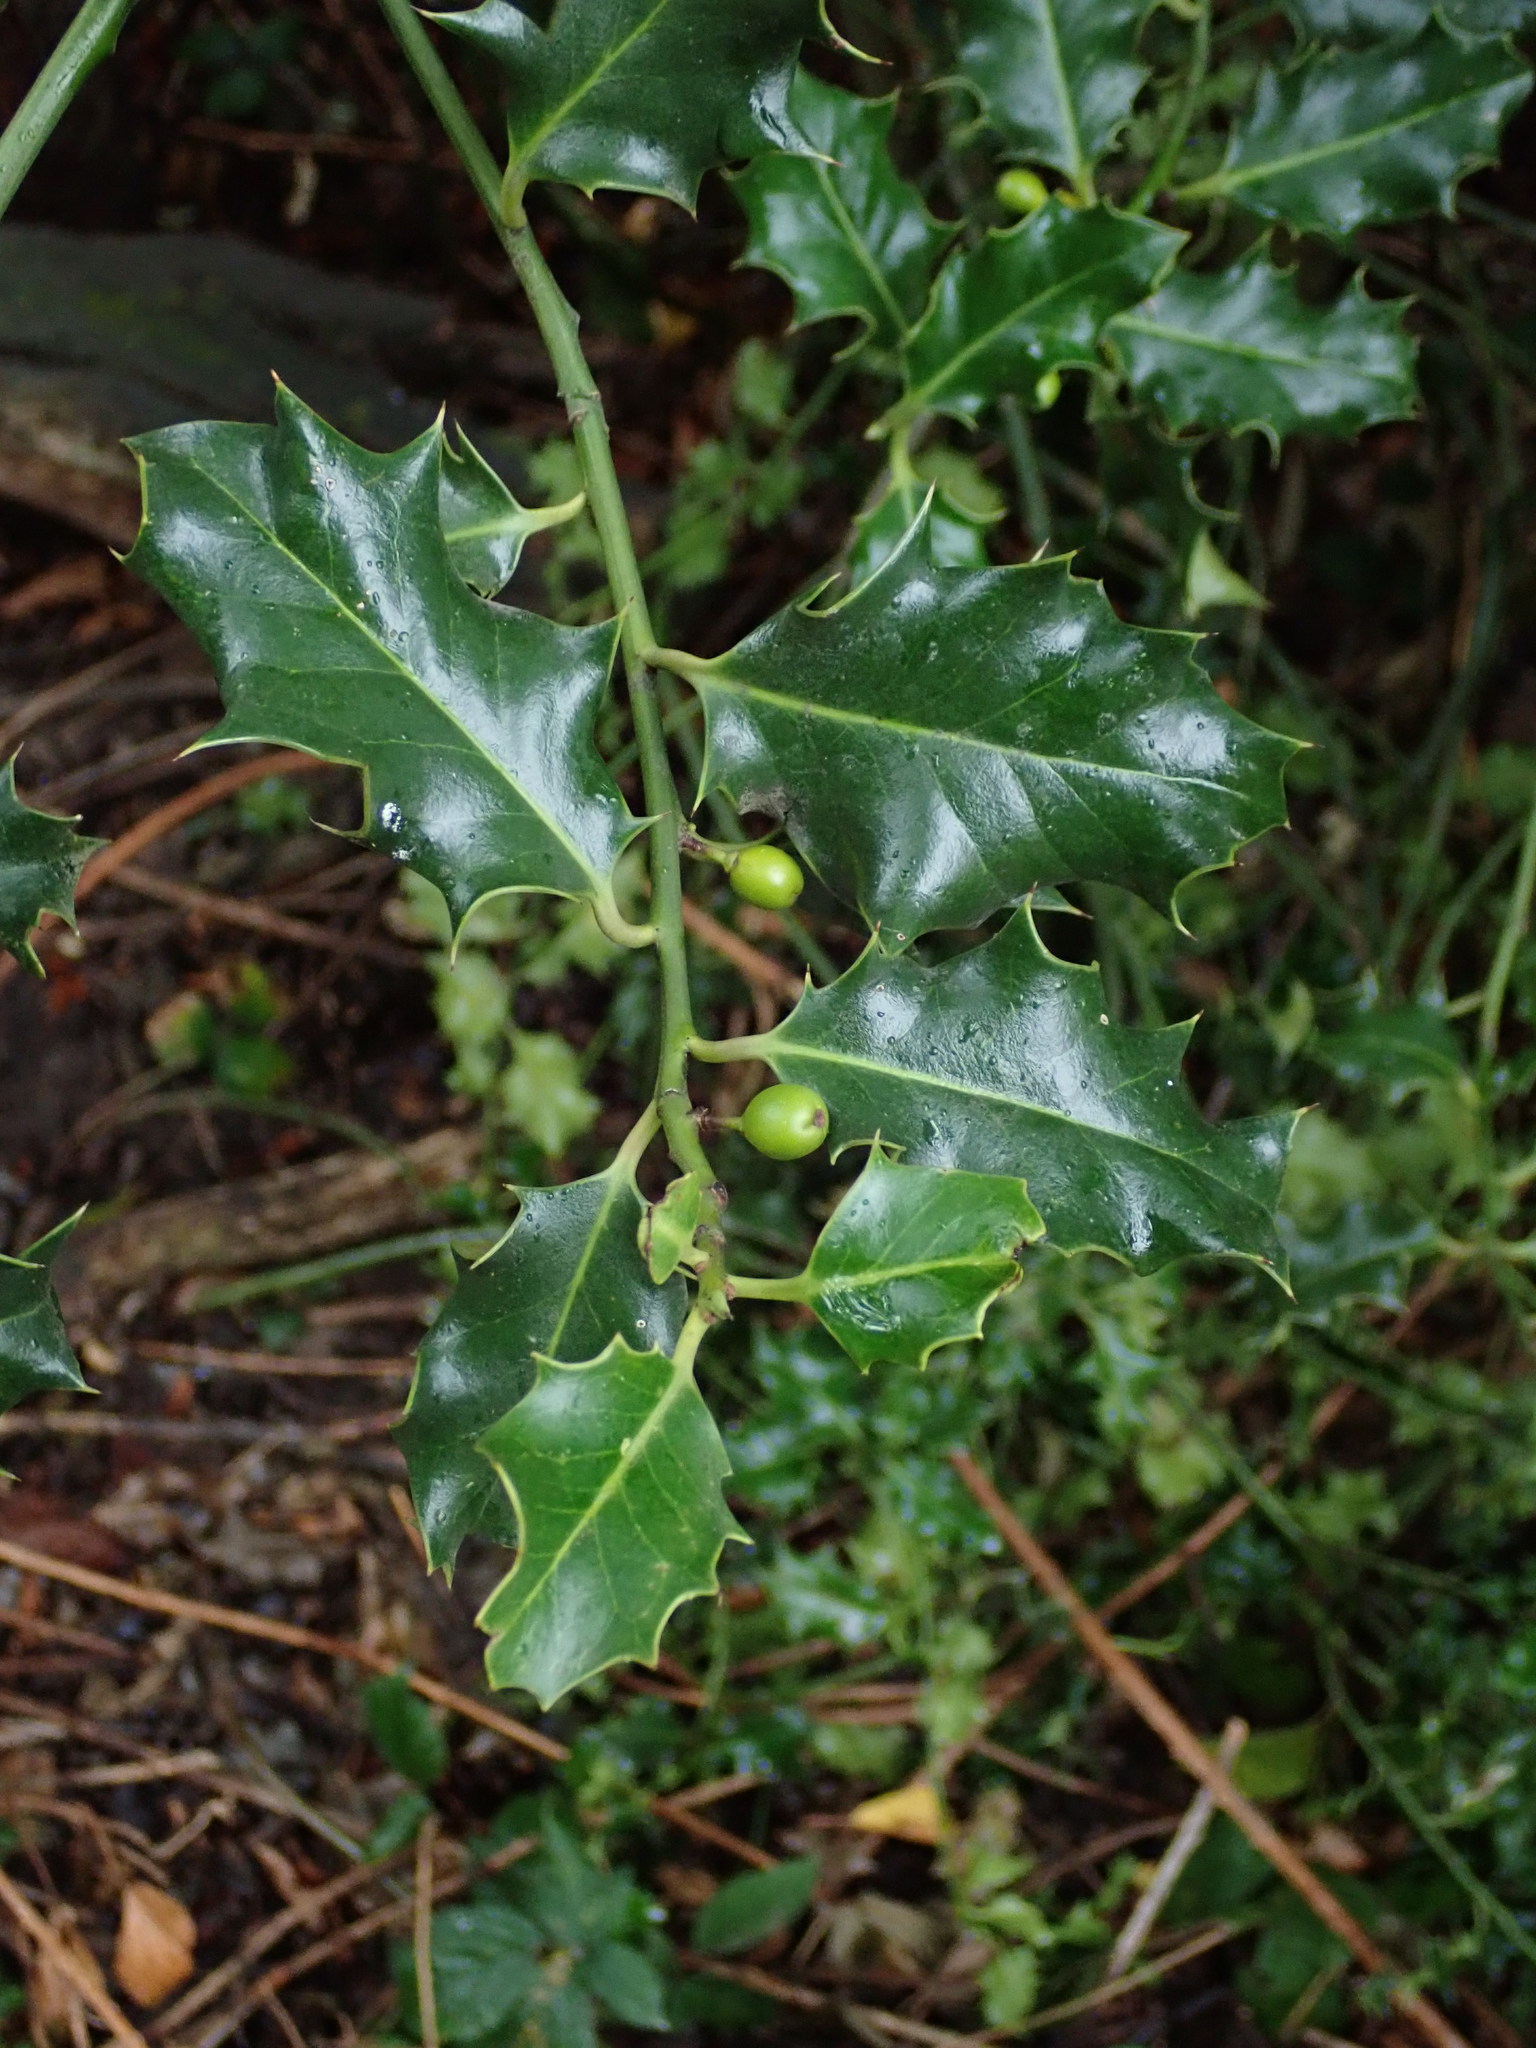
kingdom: Plantae
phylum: Tracheophyta
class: Magnoliopsida
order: Aquifoliales
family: Aquifoliaceae
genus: Ilex
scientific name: Ilex aquifolium
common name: English holly
